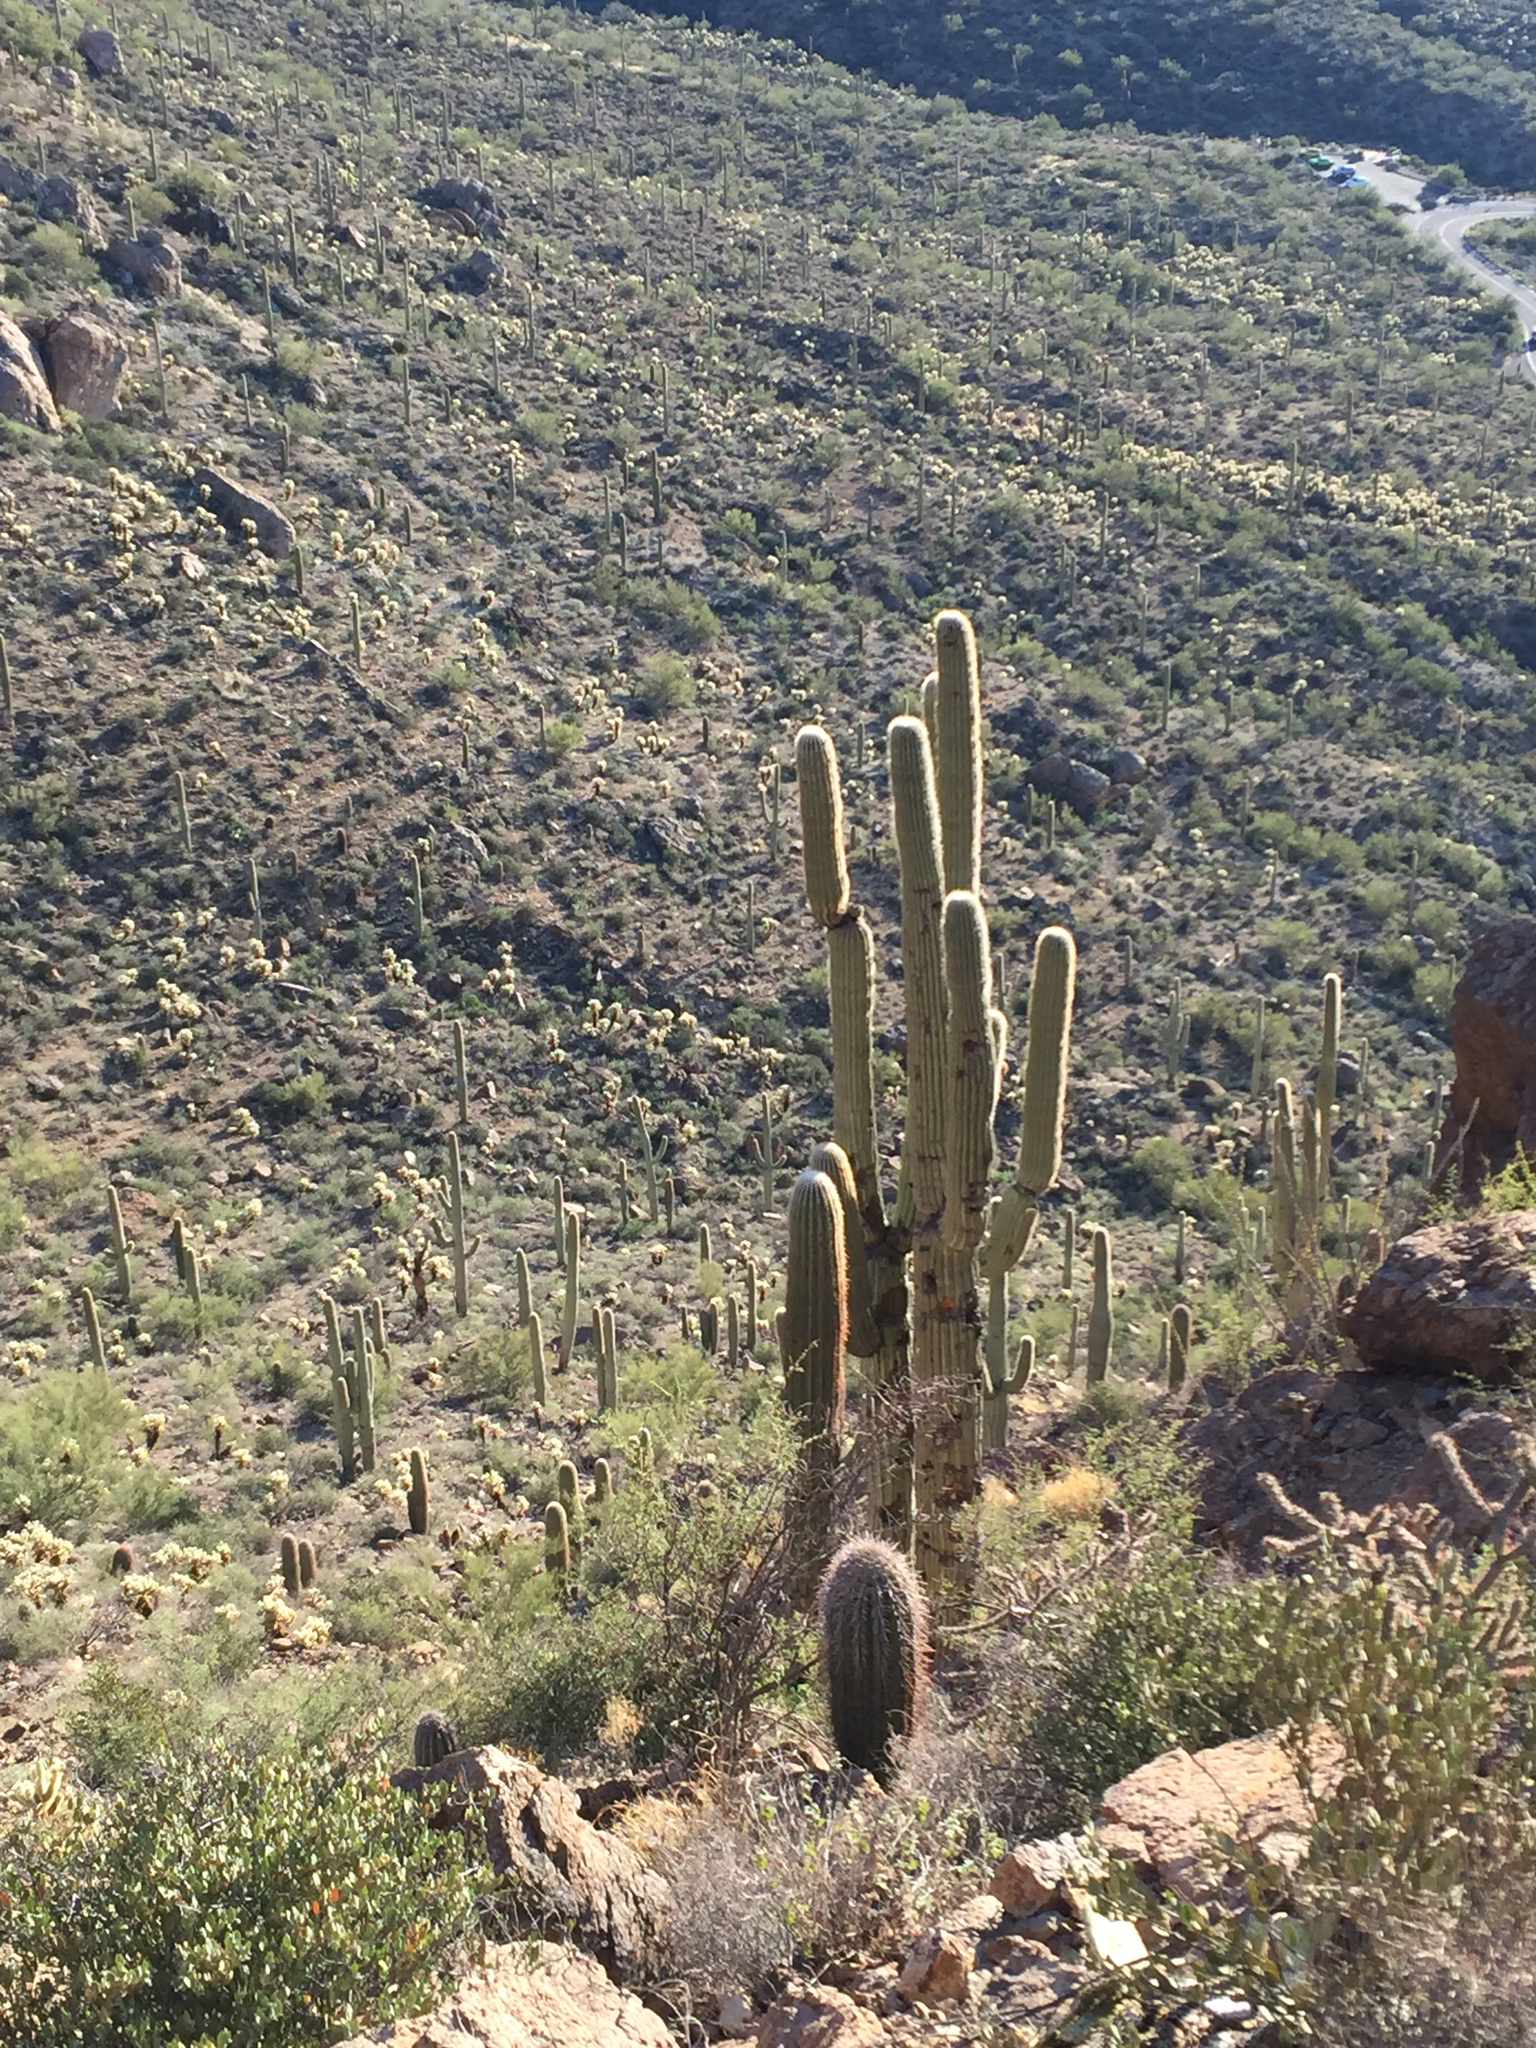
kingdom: Plantae
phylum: Tracheophyta
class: Magnoliopsida
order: Caryophyllales
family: Cactaceae
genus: Carnegiea
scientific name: Carnegiea gigantea
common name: Saguaro
